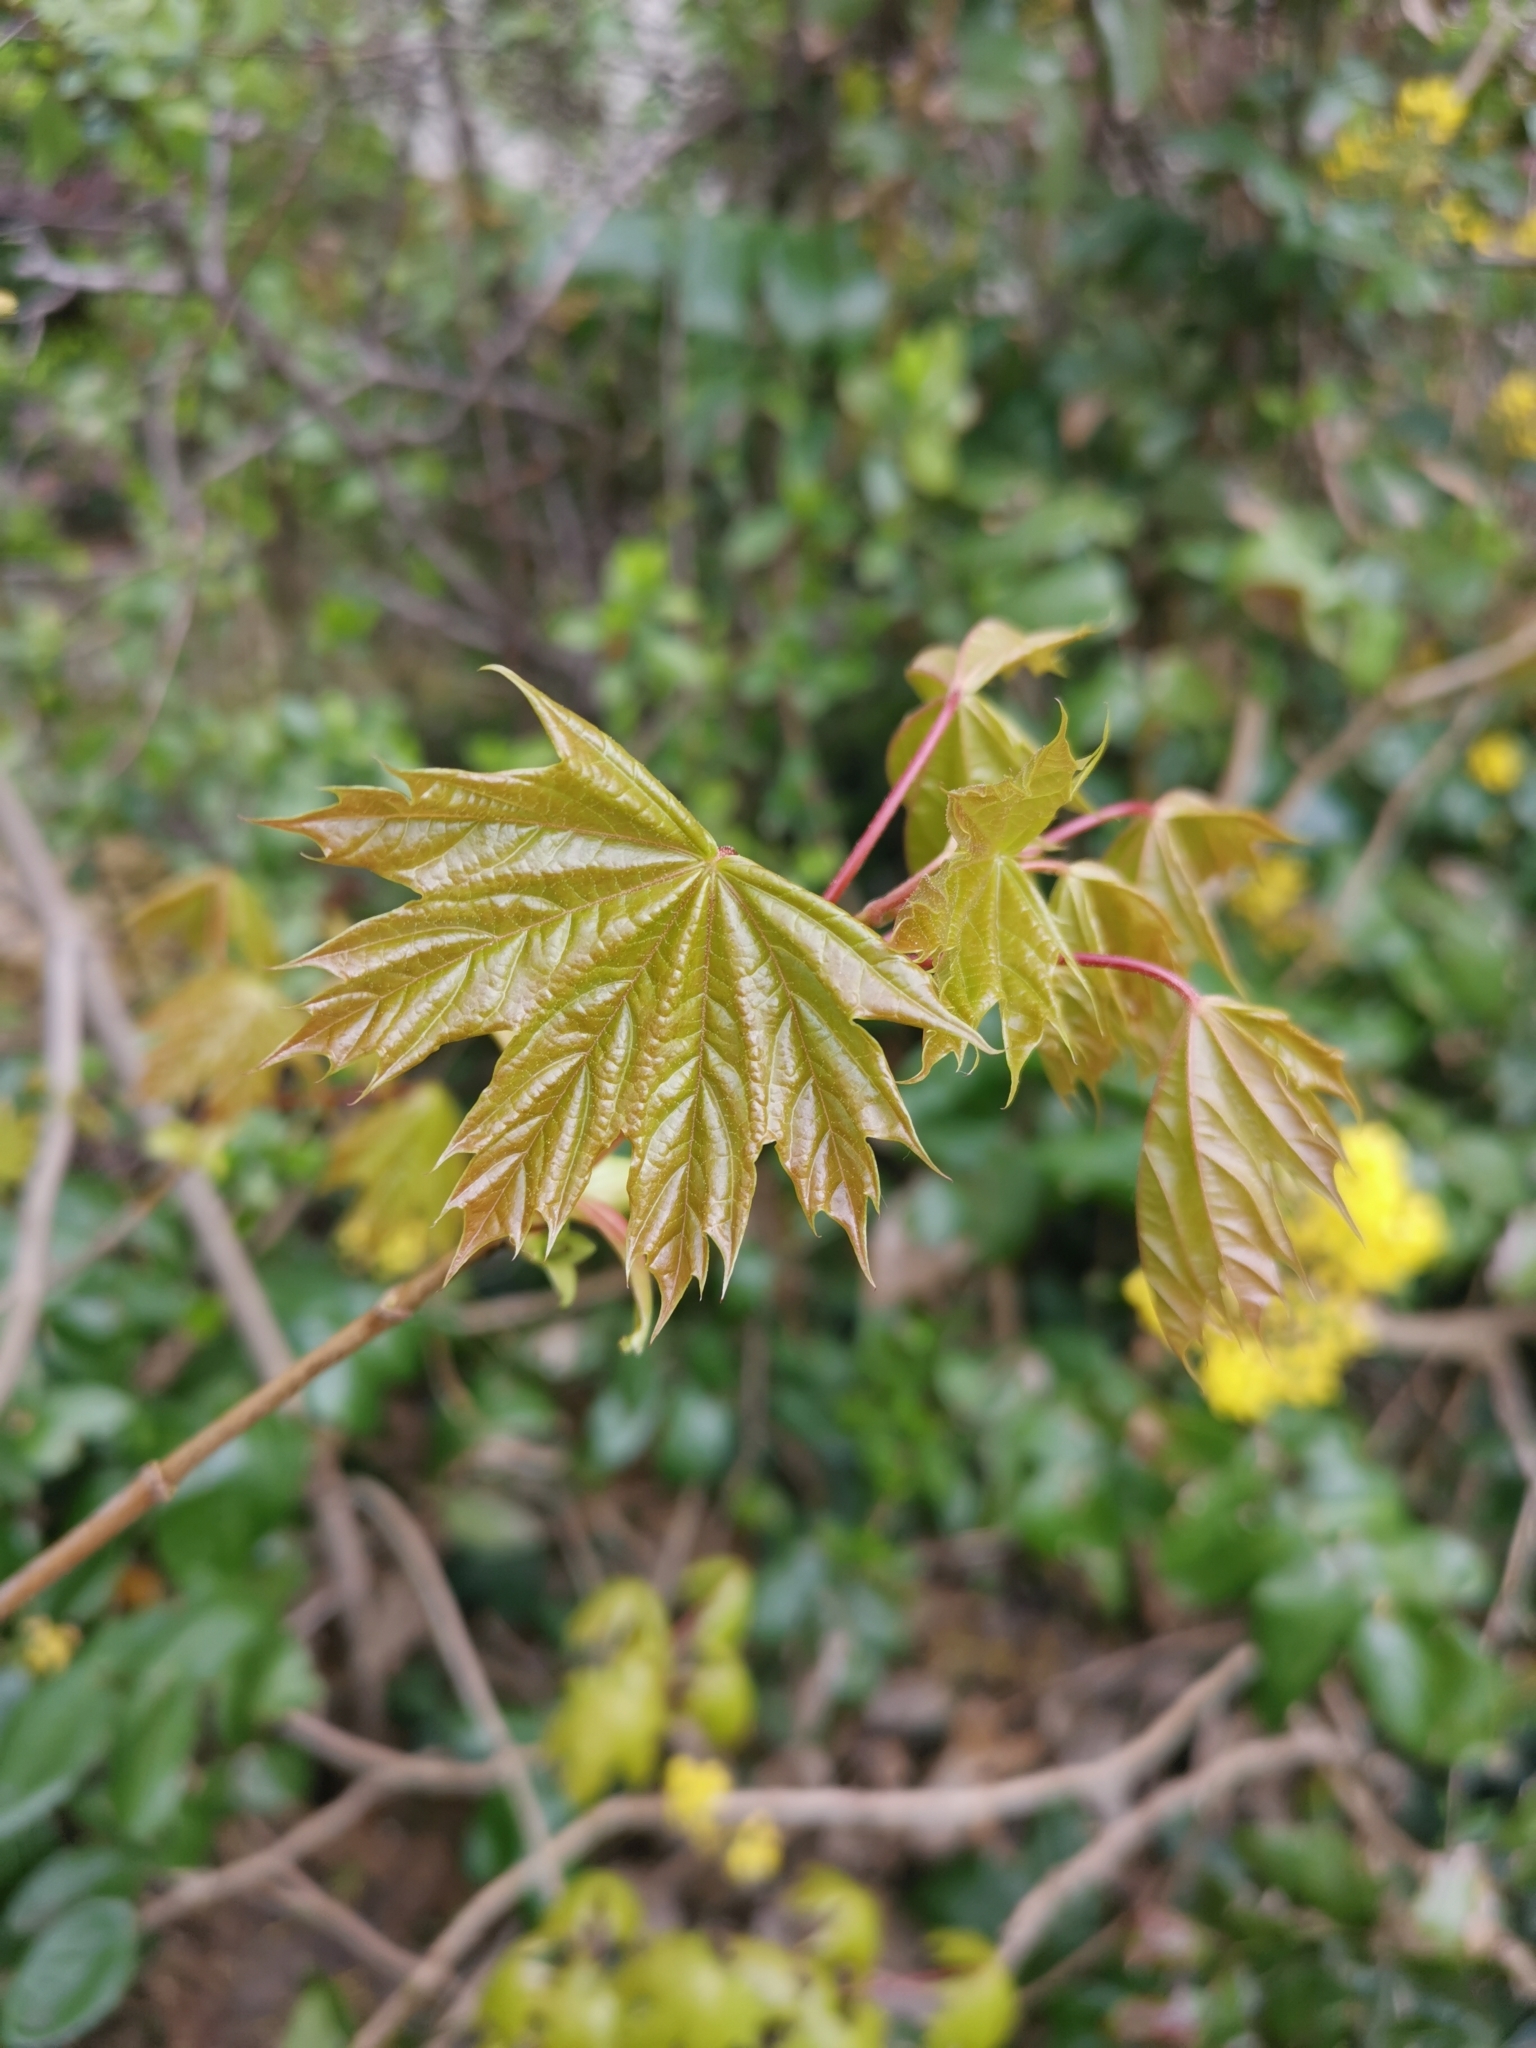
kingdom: Plantae
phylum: Tracheophyta
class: Magnoliopsida
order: Sapindales
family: Sapindaceae
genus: Acer
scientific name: Acer platanoides
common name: Norway maple
